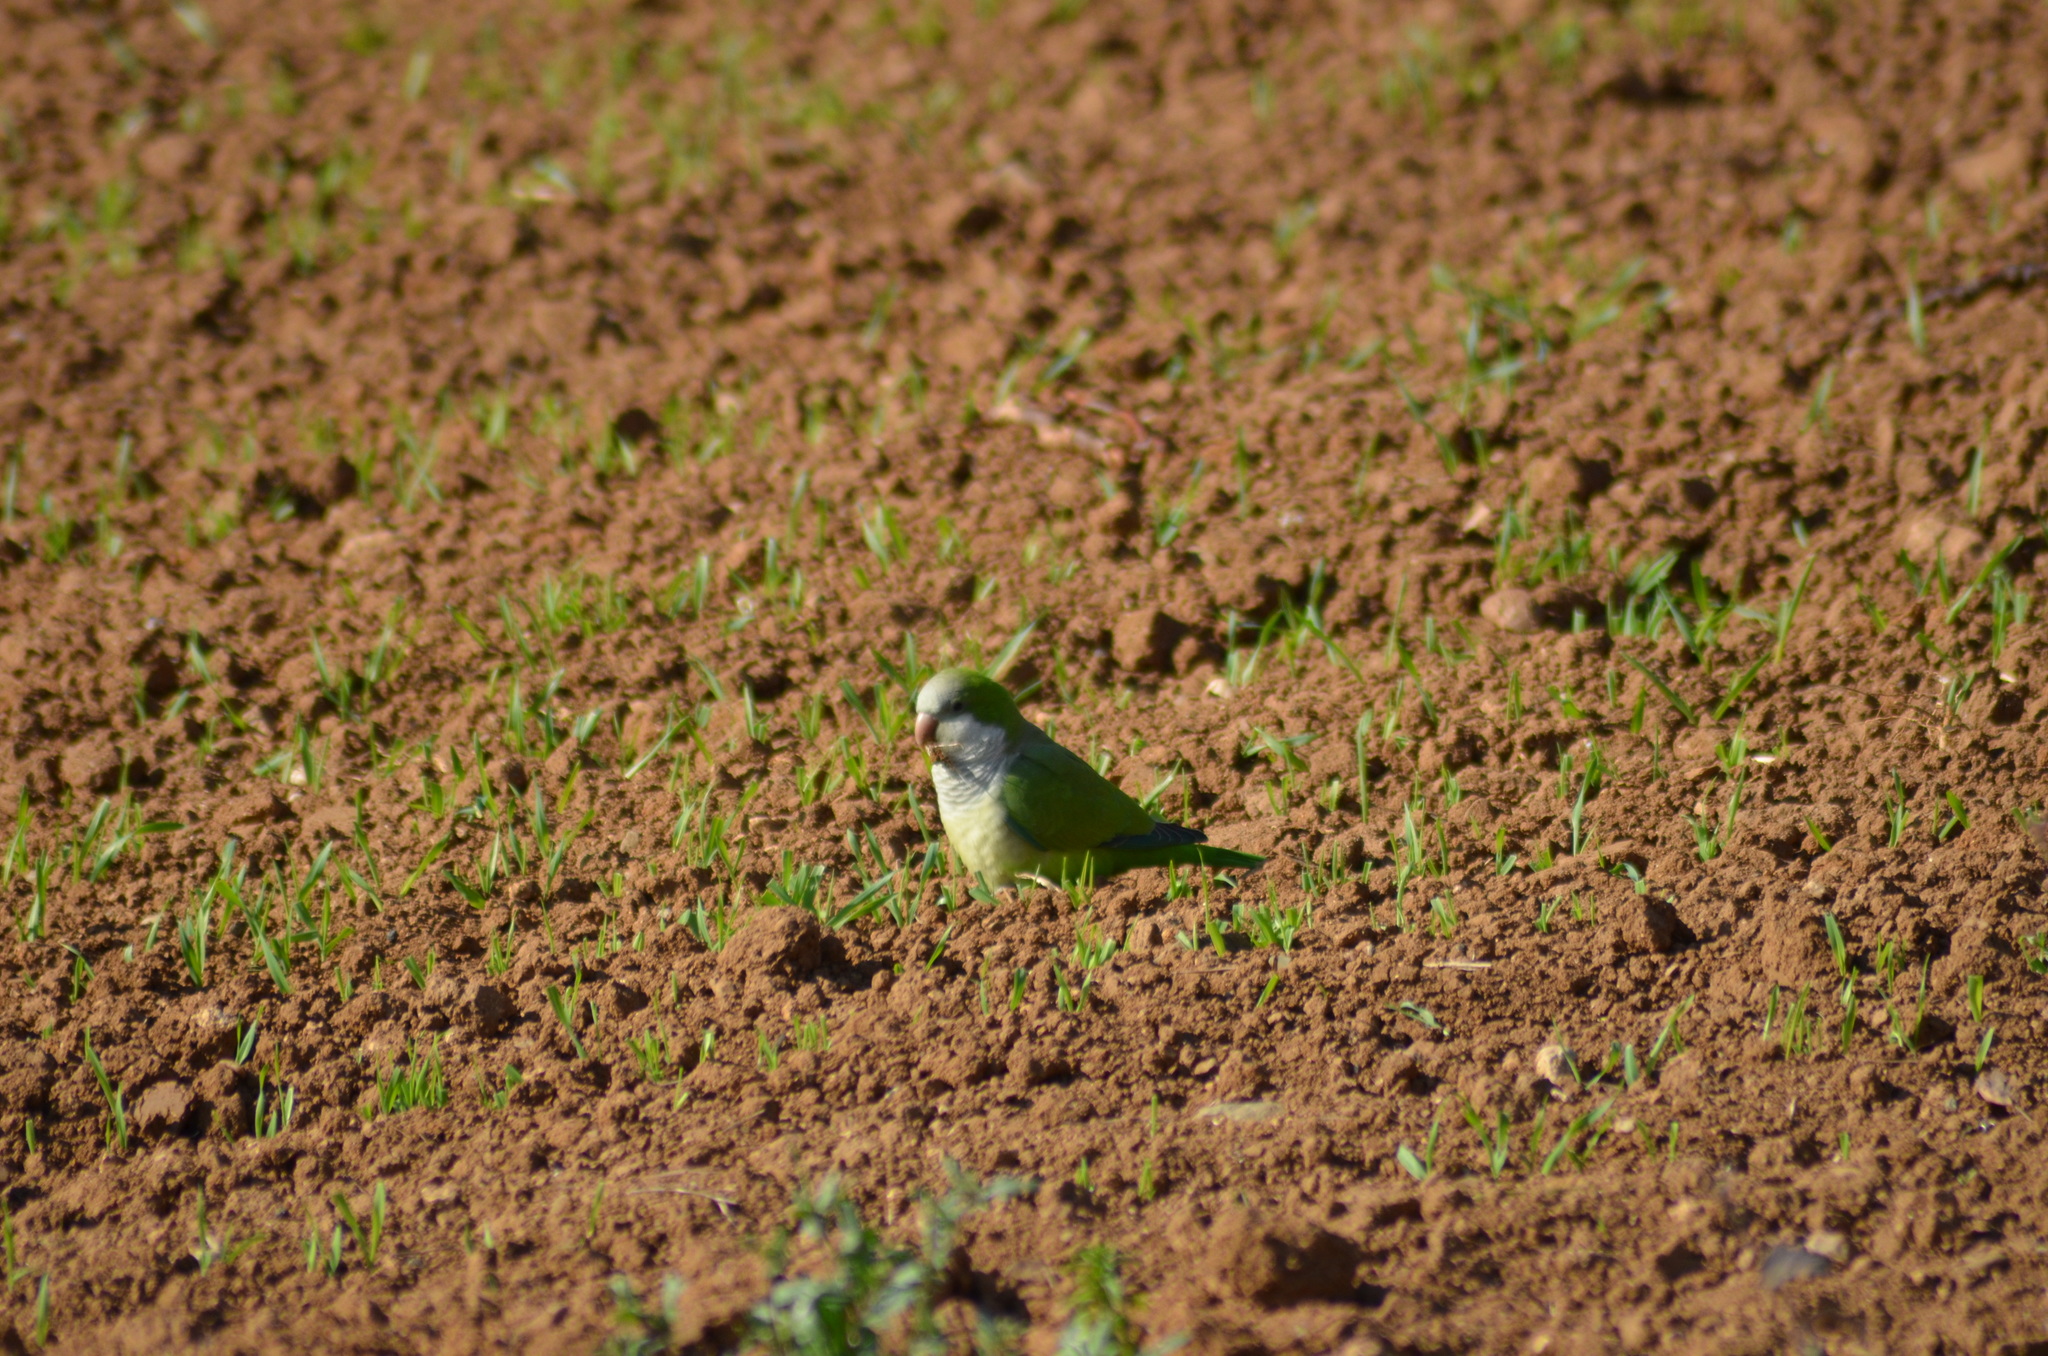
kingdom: Animalia
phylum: Chordata
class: Aves
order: Psittaciformes
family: Psittacidae
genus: Myiopsitta
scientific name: Myiopsitta monachus
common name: Monk parakeet
